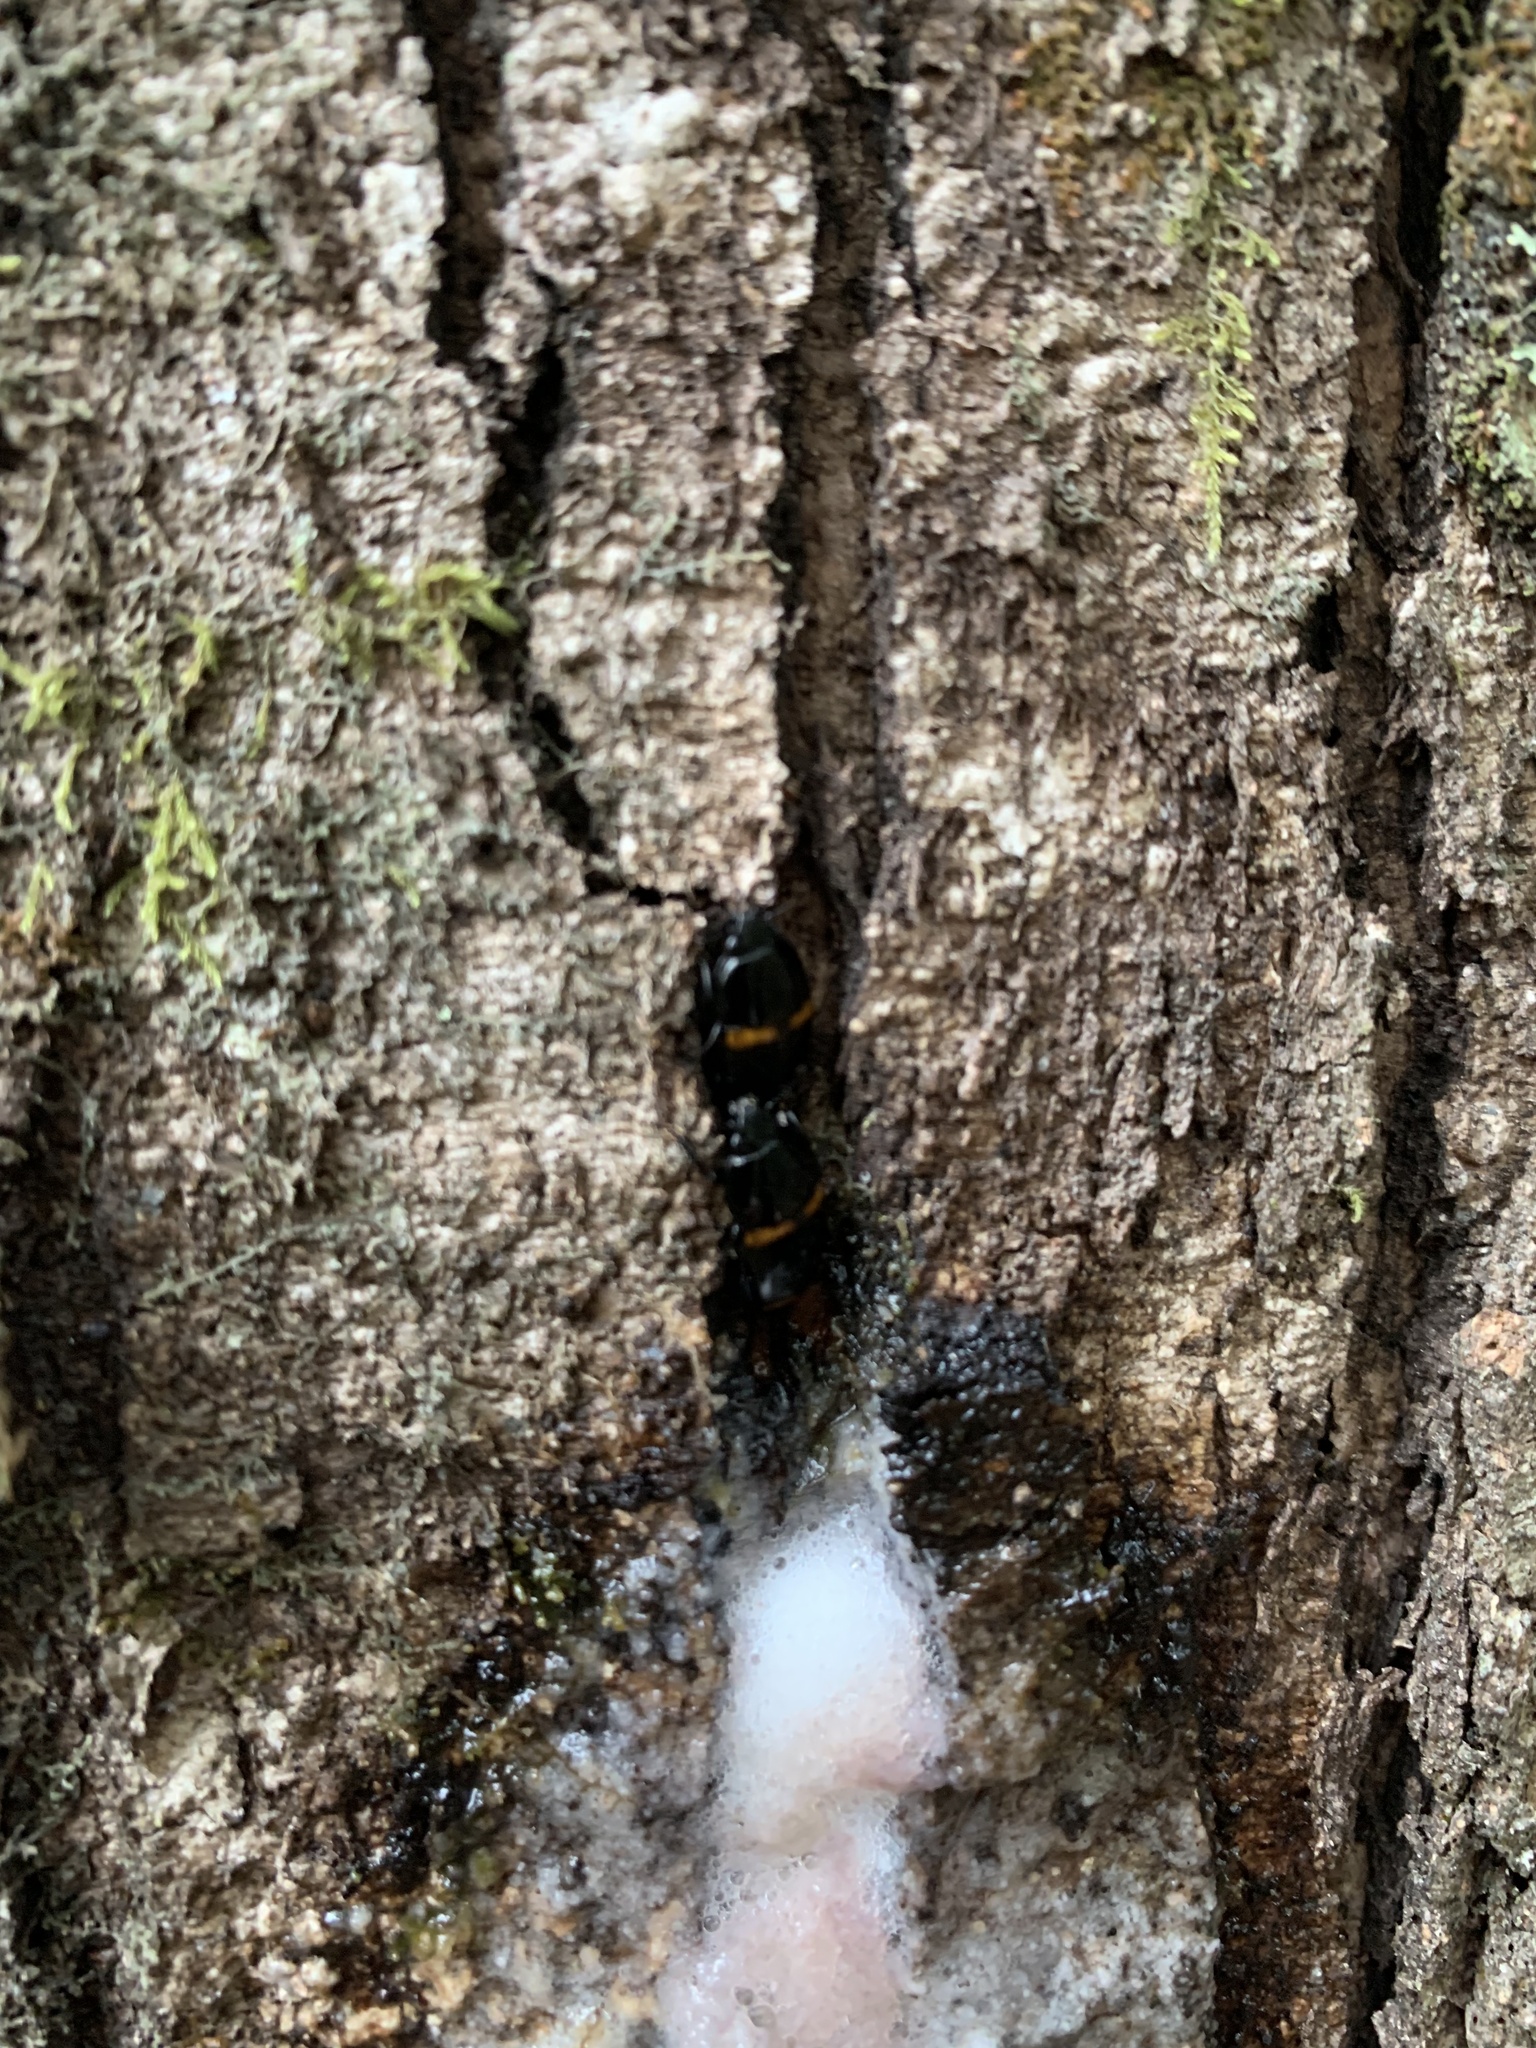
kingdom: Animalia
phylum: Arthropoda
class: Insecta
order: Coleoptera
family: Nitidulidae
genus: Lioschema
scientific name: Lioschema
